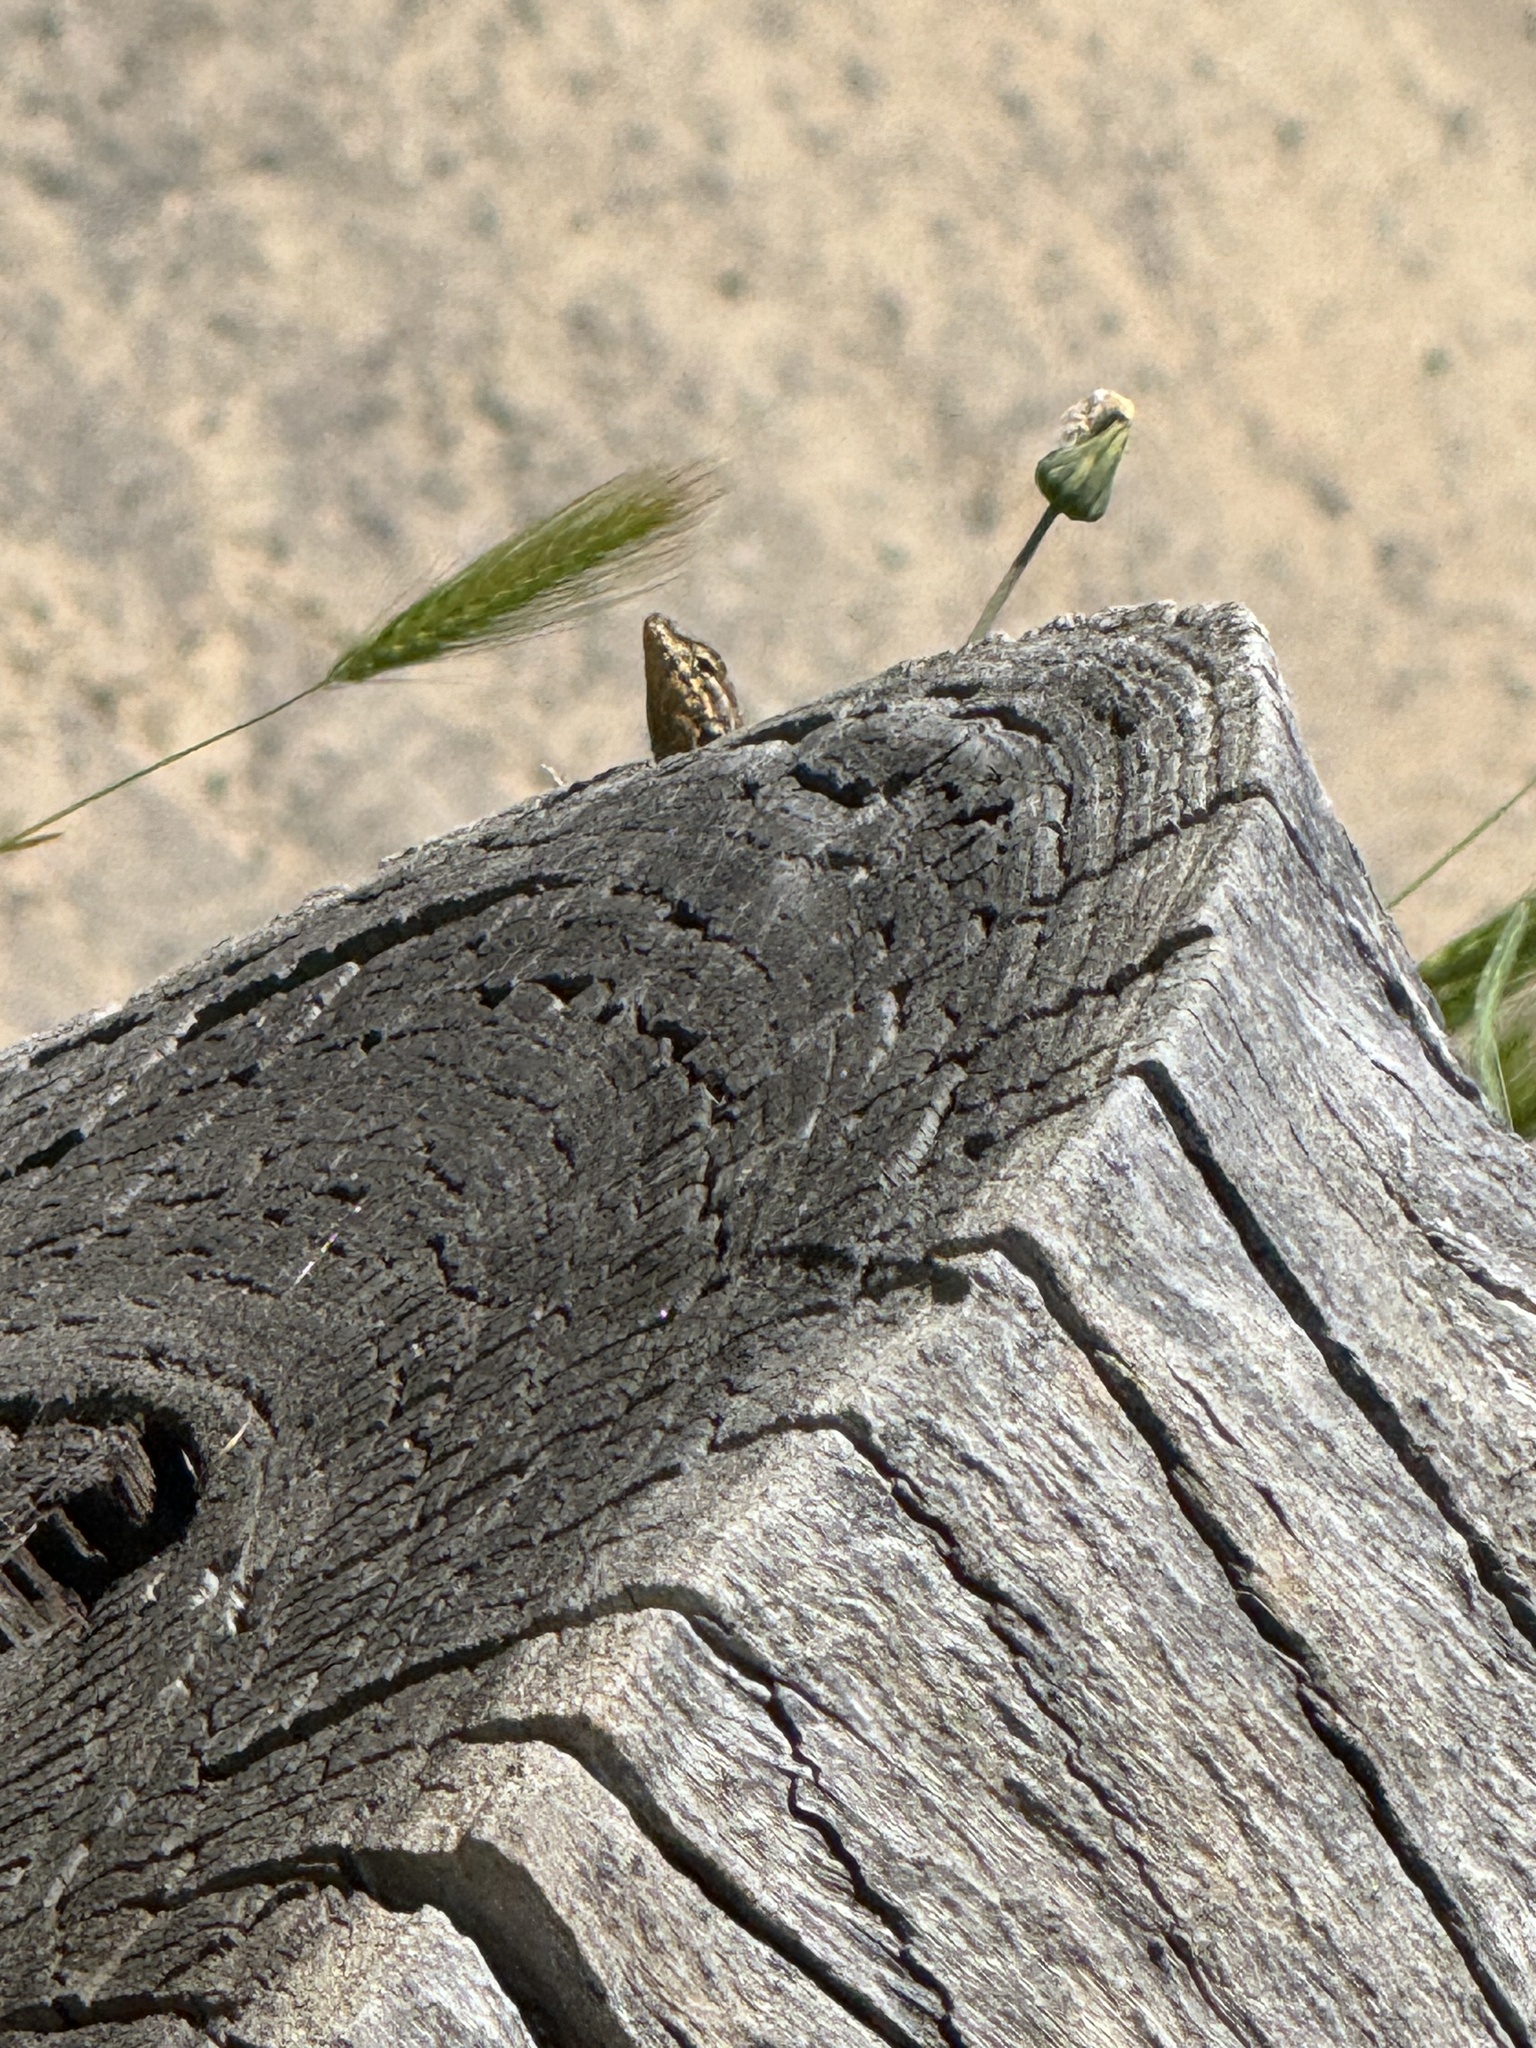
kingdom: Animalia
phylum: Chordata
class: Squamata
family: Phrynosomatidae
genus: Uta
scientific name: Uta stansburiana
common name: Side-blotched lizard
